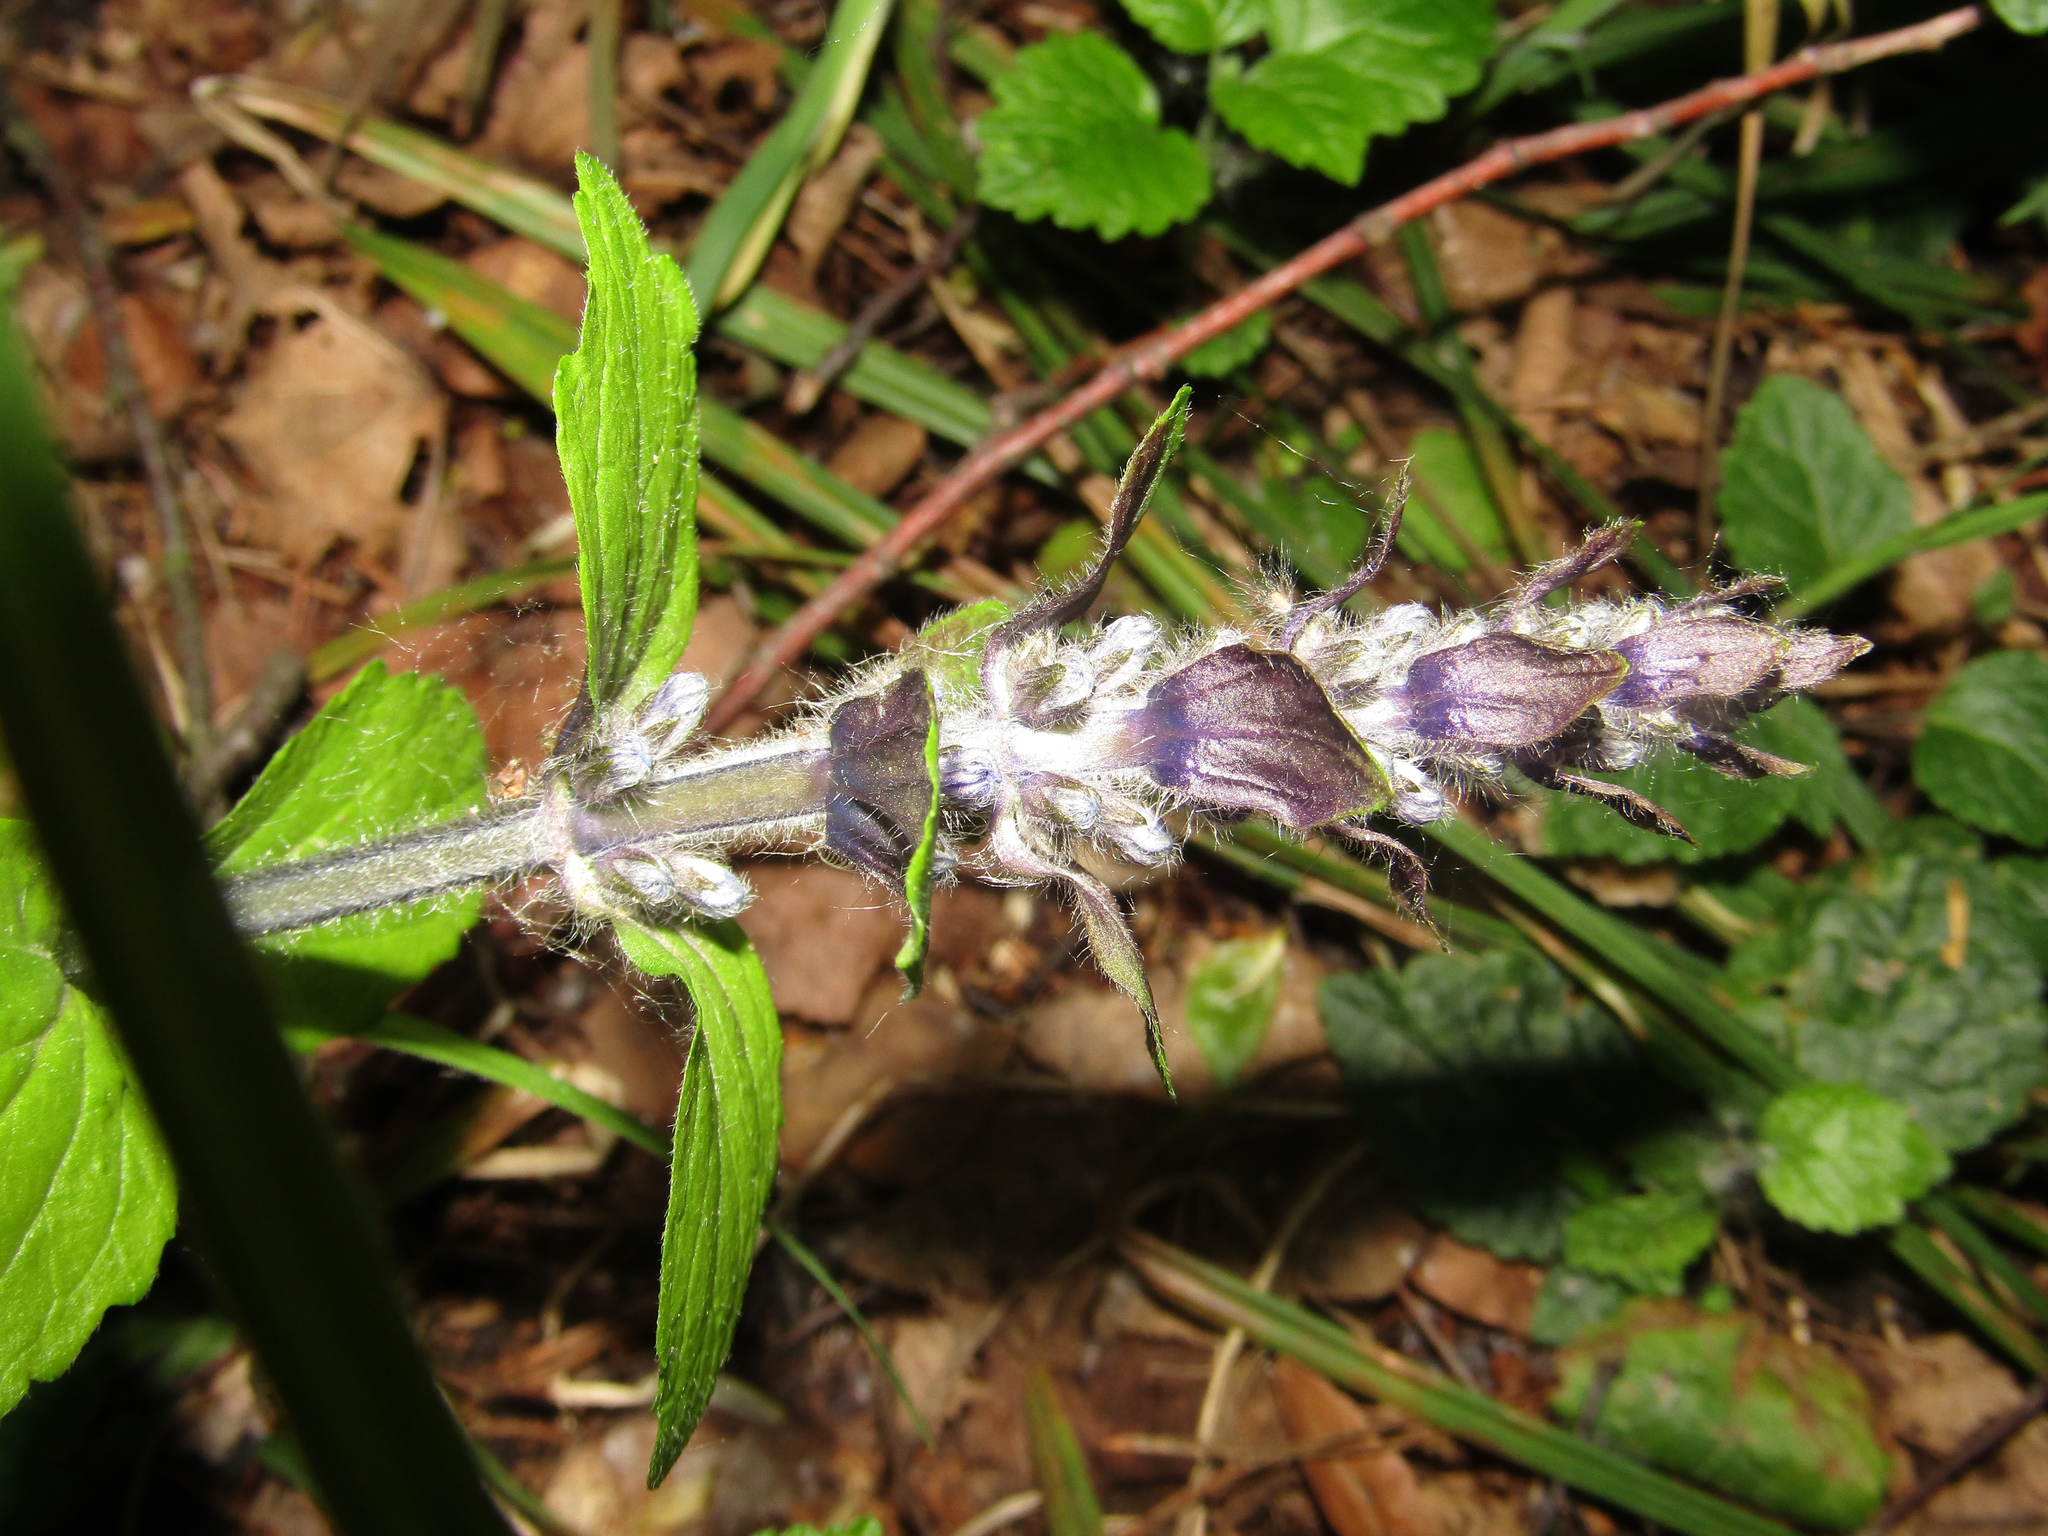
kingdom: Plantae
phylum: Tracheophyta
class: Magnoliopsida
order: Lamiales
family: Lamiaceae
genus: Ajuga
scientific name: Ajuga reptans
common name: Bugle
